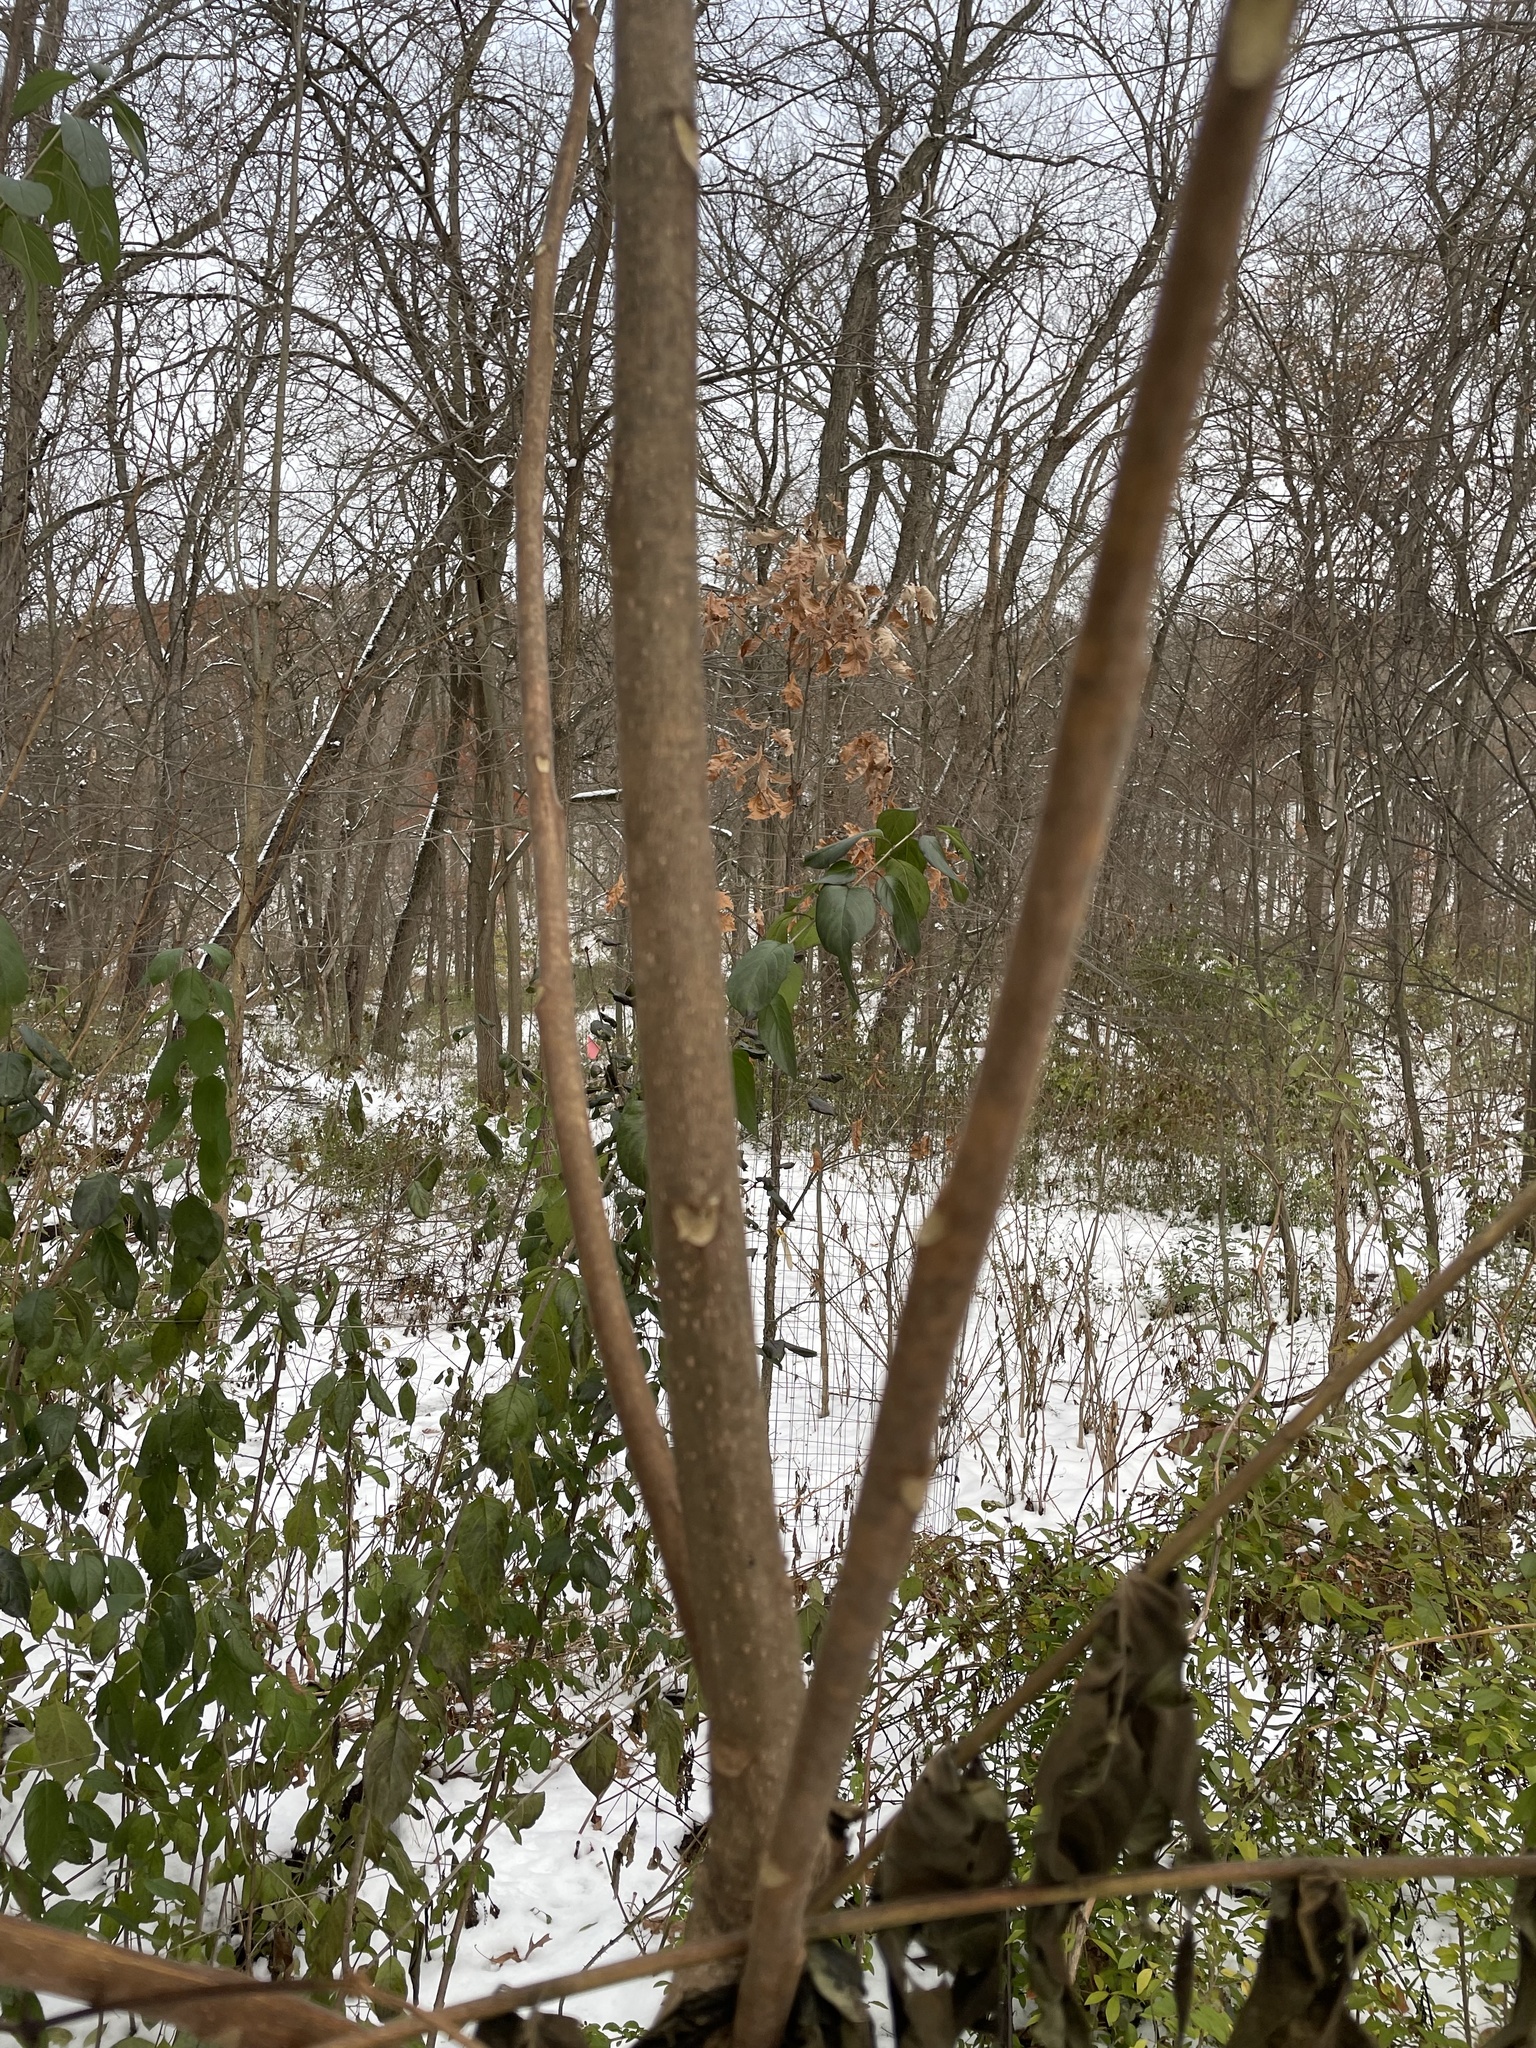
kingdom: Plantae
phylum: Tracheophyta
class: Magnoliopsida
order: Sapindales
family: Simaroubaceae
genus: Ailanthus
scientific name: Ailanthus altissima
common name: Tree-of-heaven
